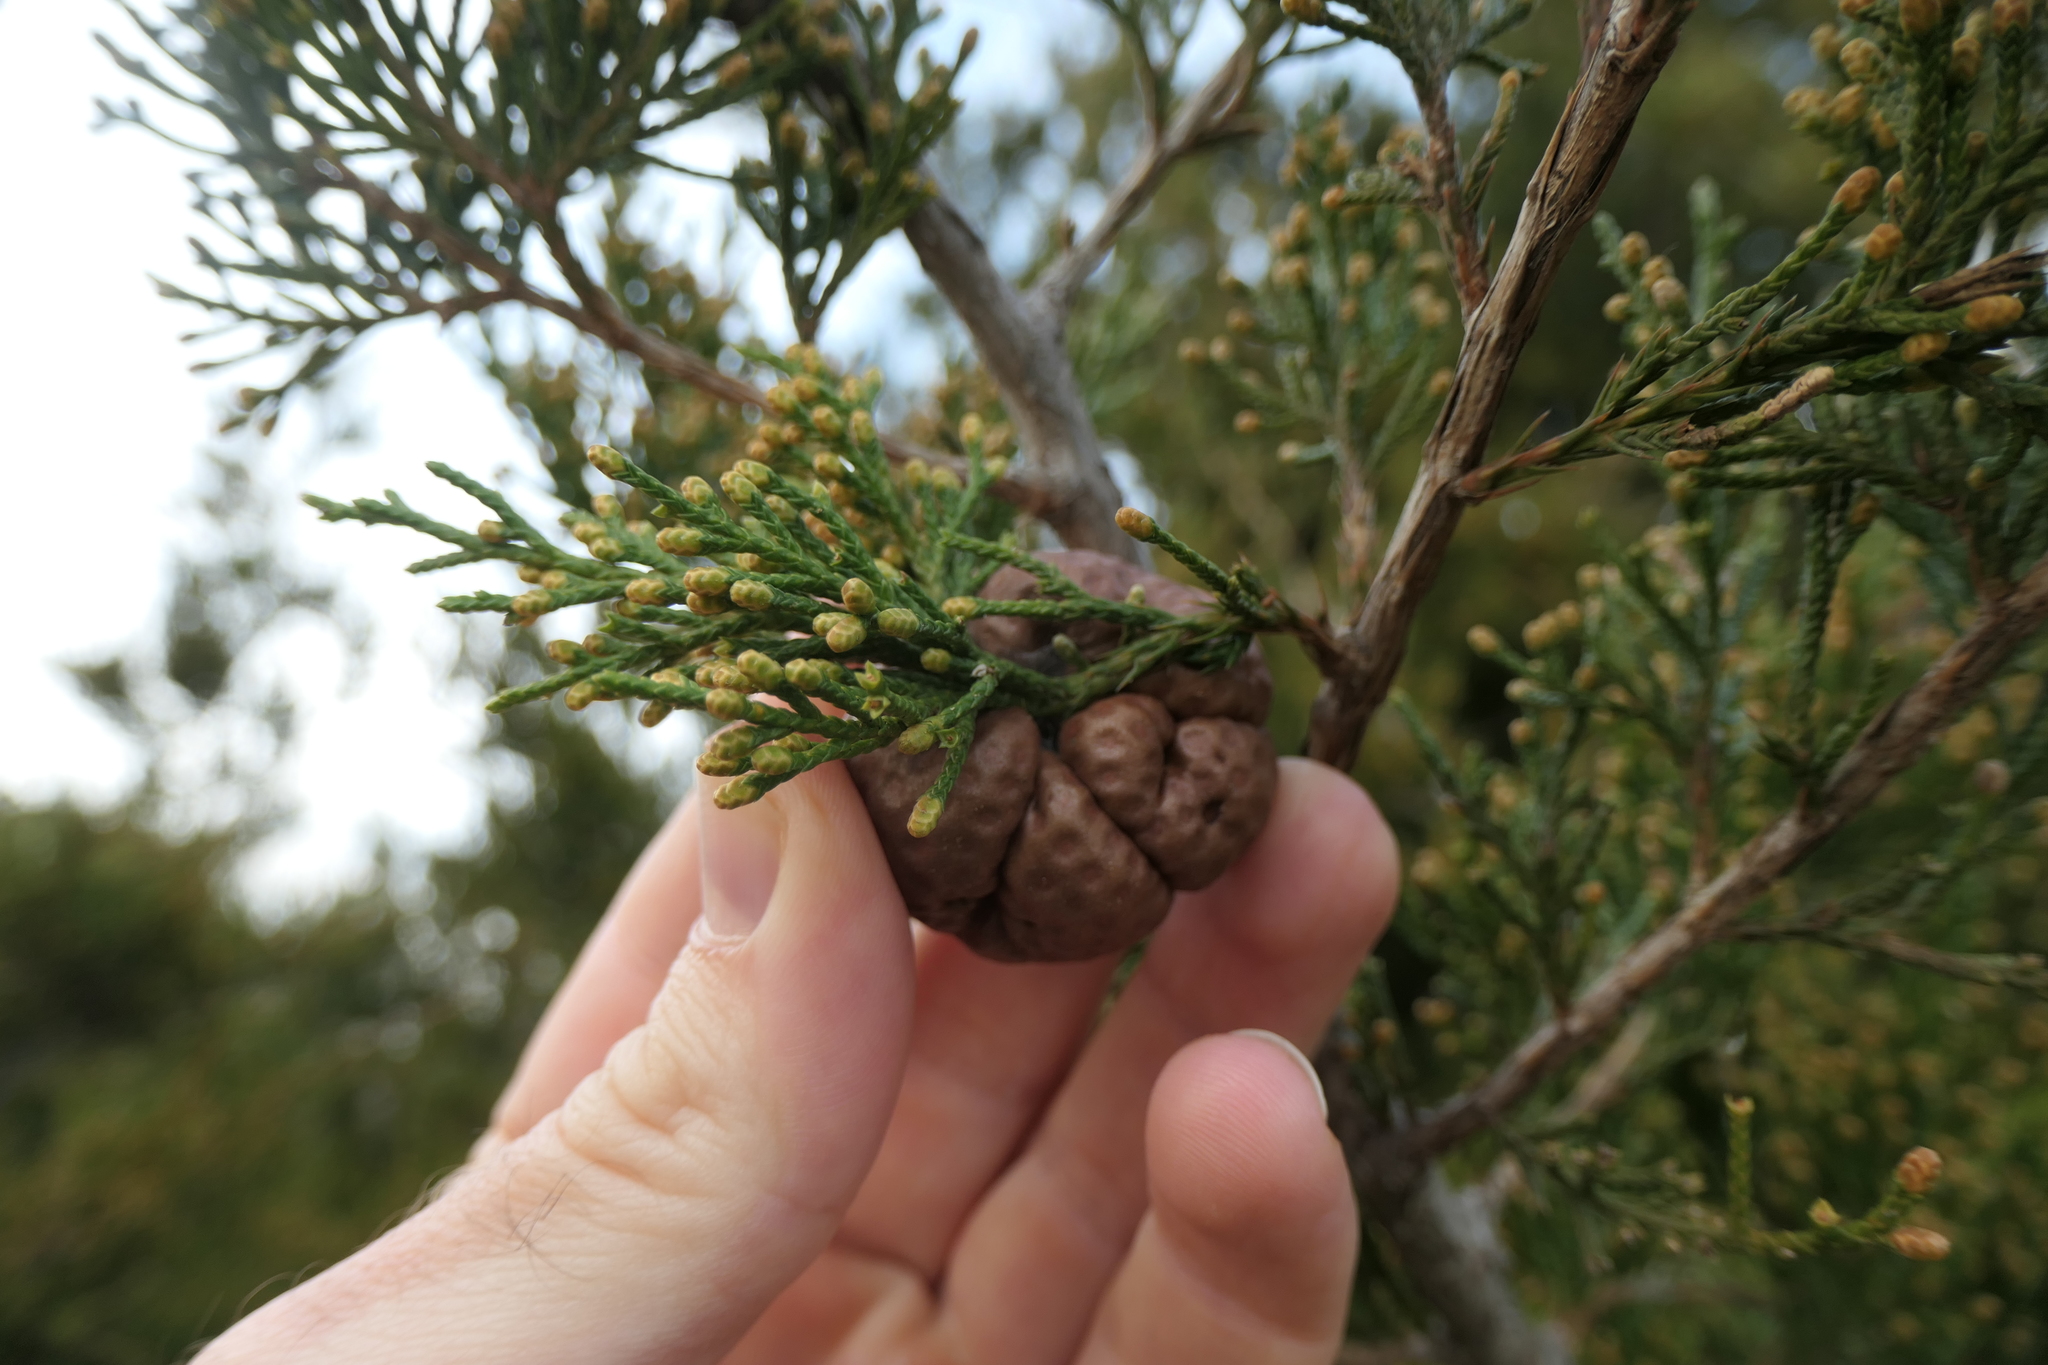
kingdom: Fungi
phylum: Basidiomycota
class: Pucciniomycetes
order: Pucciniales
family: Gymnosporangiaceae
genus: Gymnosporangium
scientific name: Gymnosporangium juniperi-virginianae
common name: Juniper-apple rust
